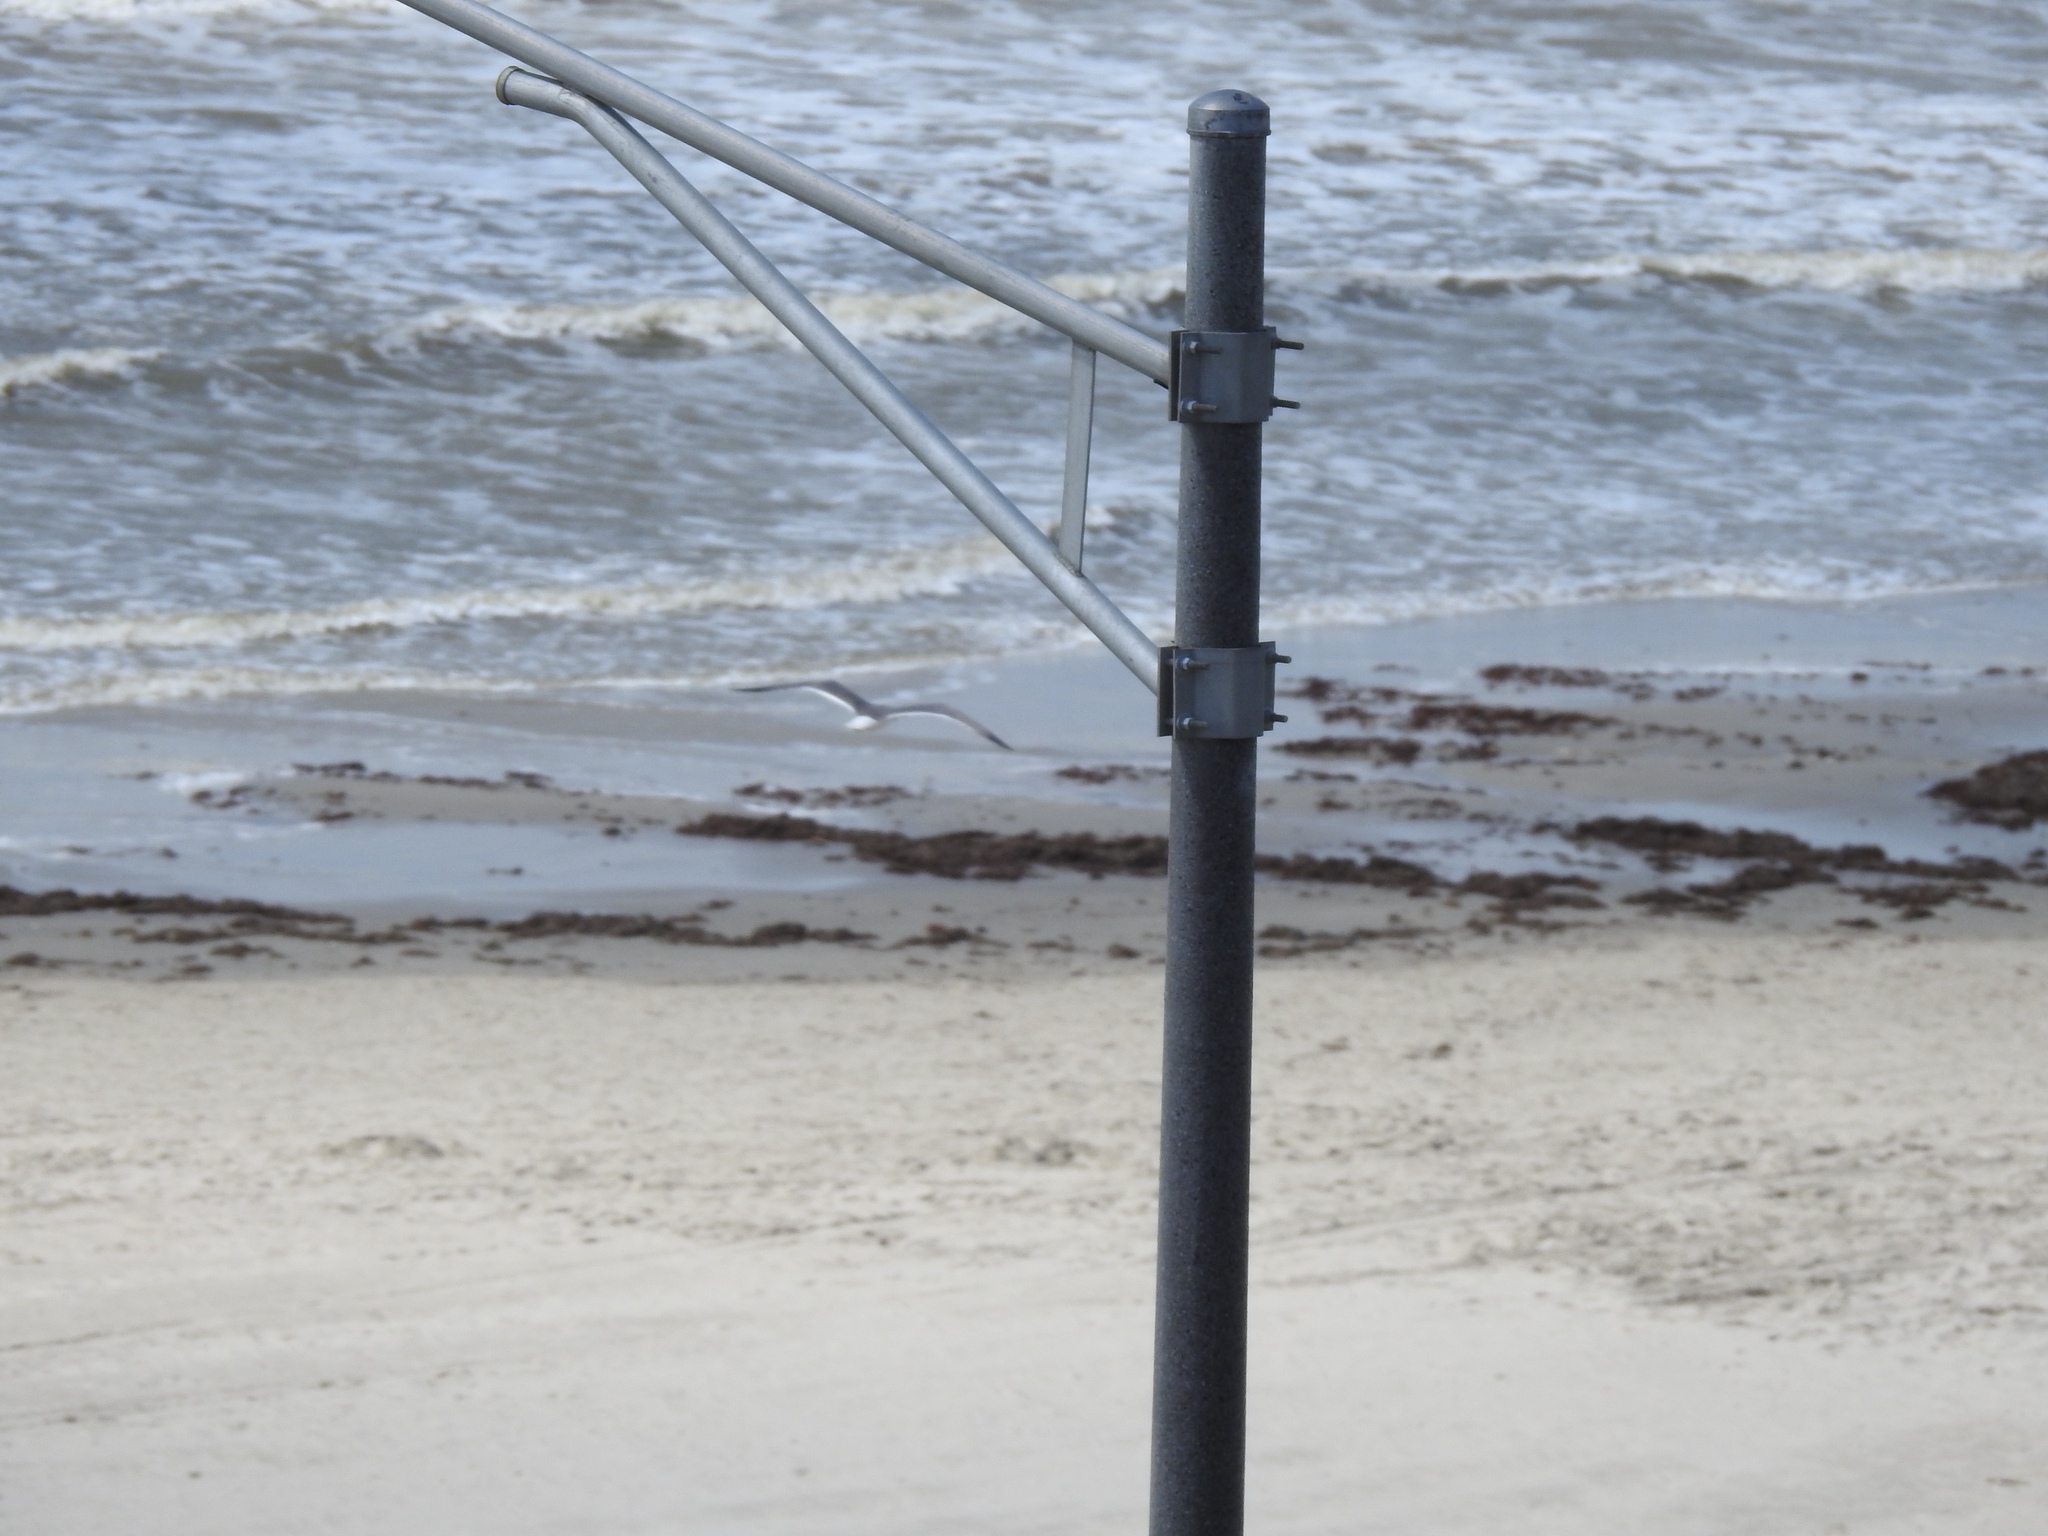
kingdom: Animalia
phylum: Chordata
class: Aves
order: Charadriiformes
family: Laridae
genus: Leucophaeus
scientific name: Leucophaeus atricilla
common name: Laughing gull
